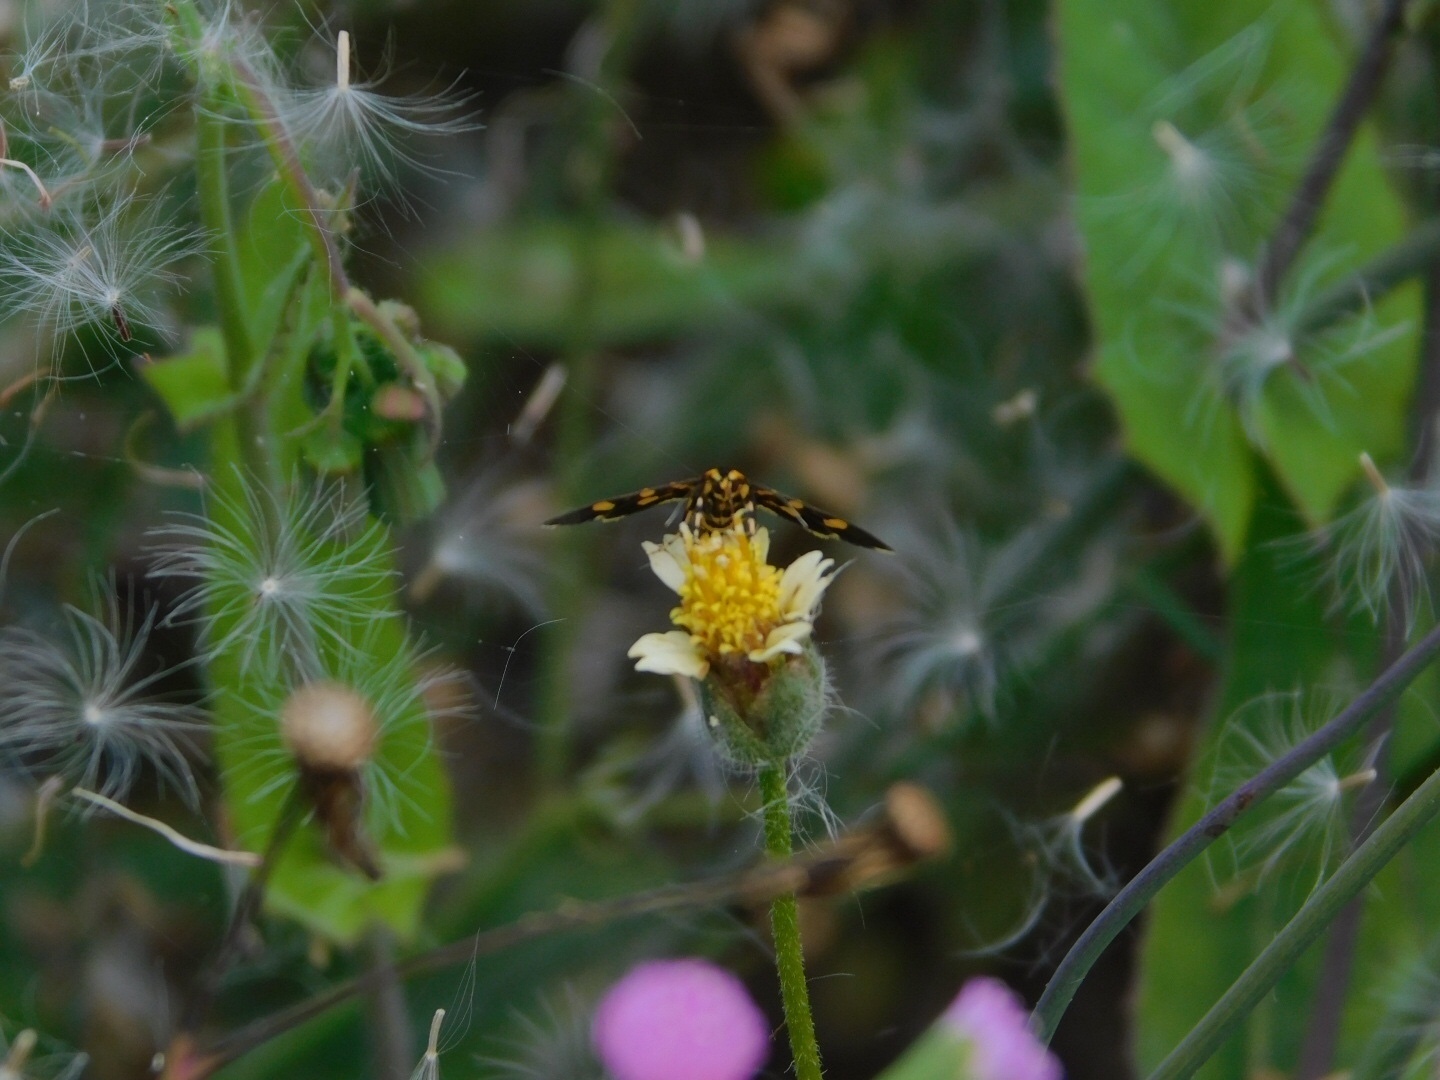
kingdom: Animalia
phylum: Arthropoda
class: Insecta
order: Lepidoptera
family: Crambidae
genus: Syngamia
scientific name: Syngamia florella
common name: Orange-spotted flower moth
